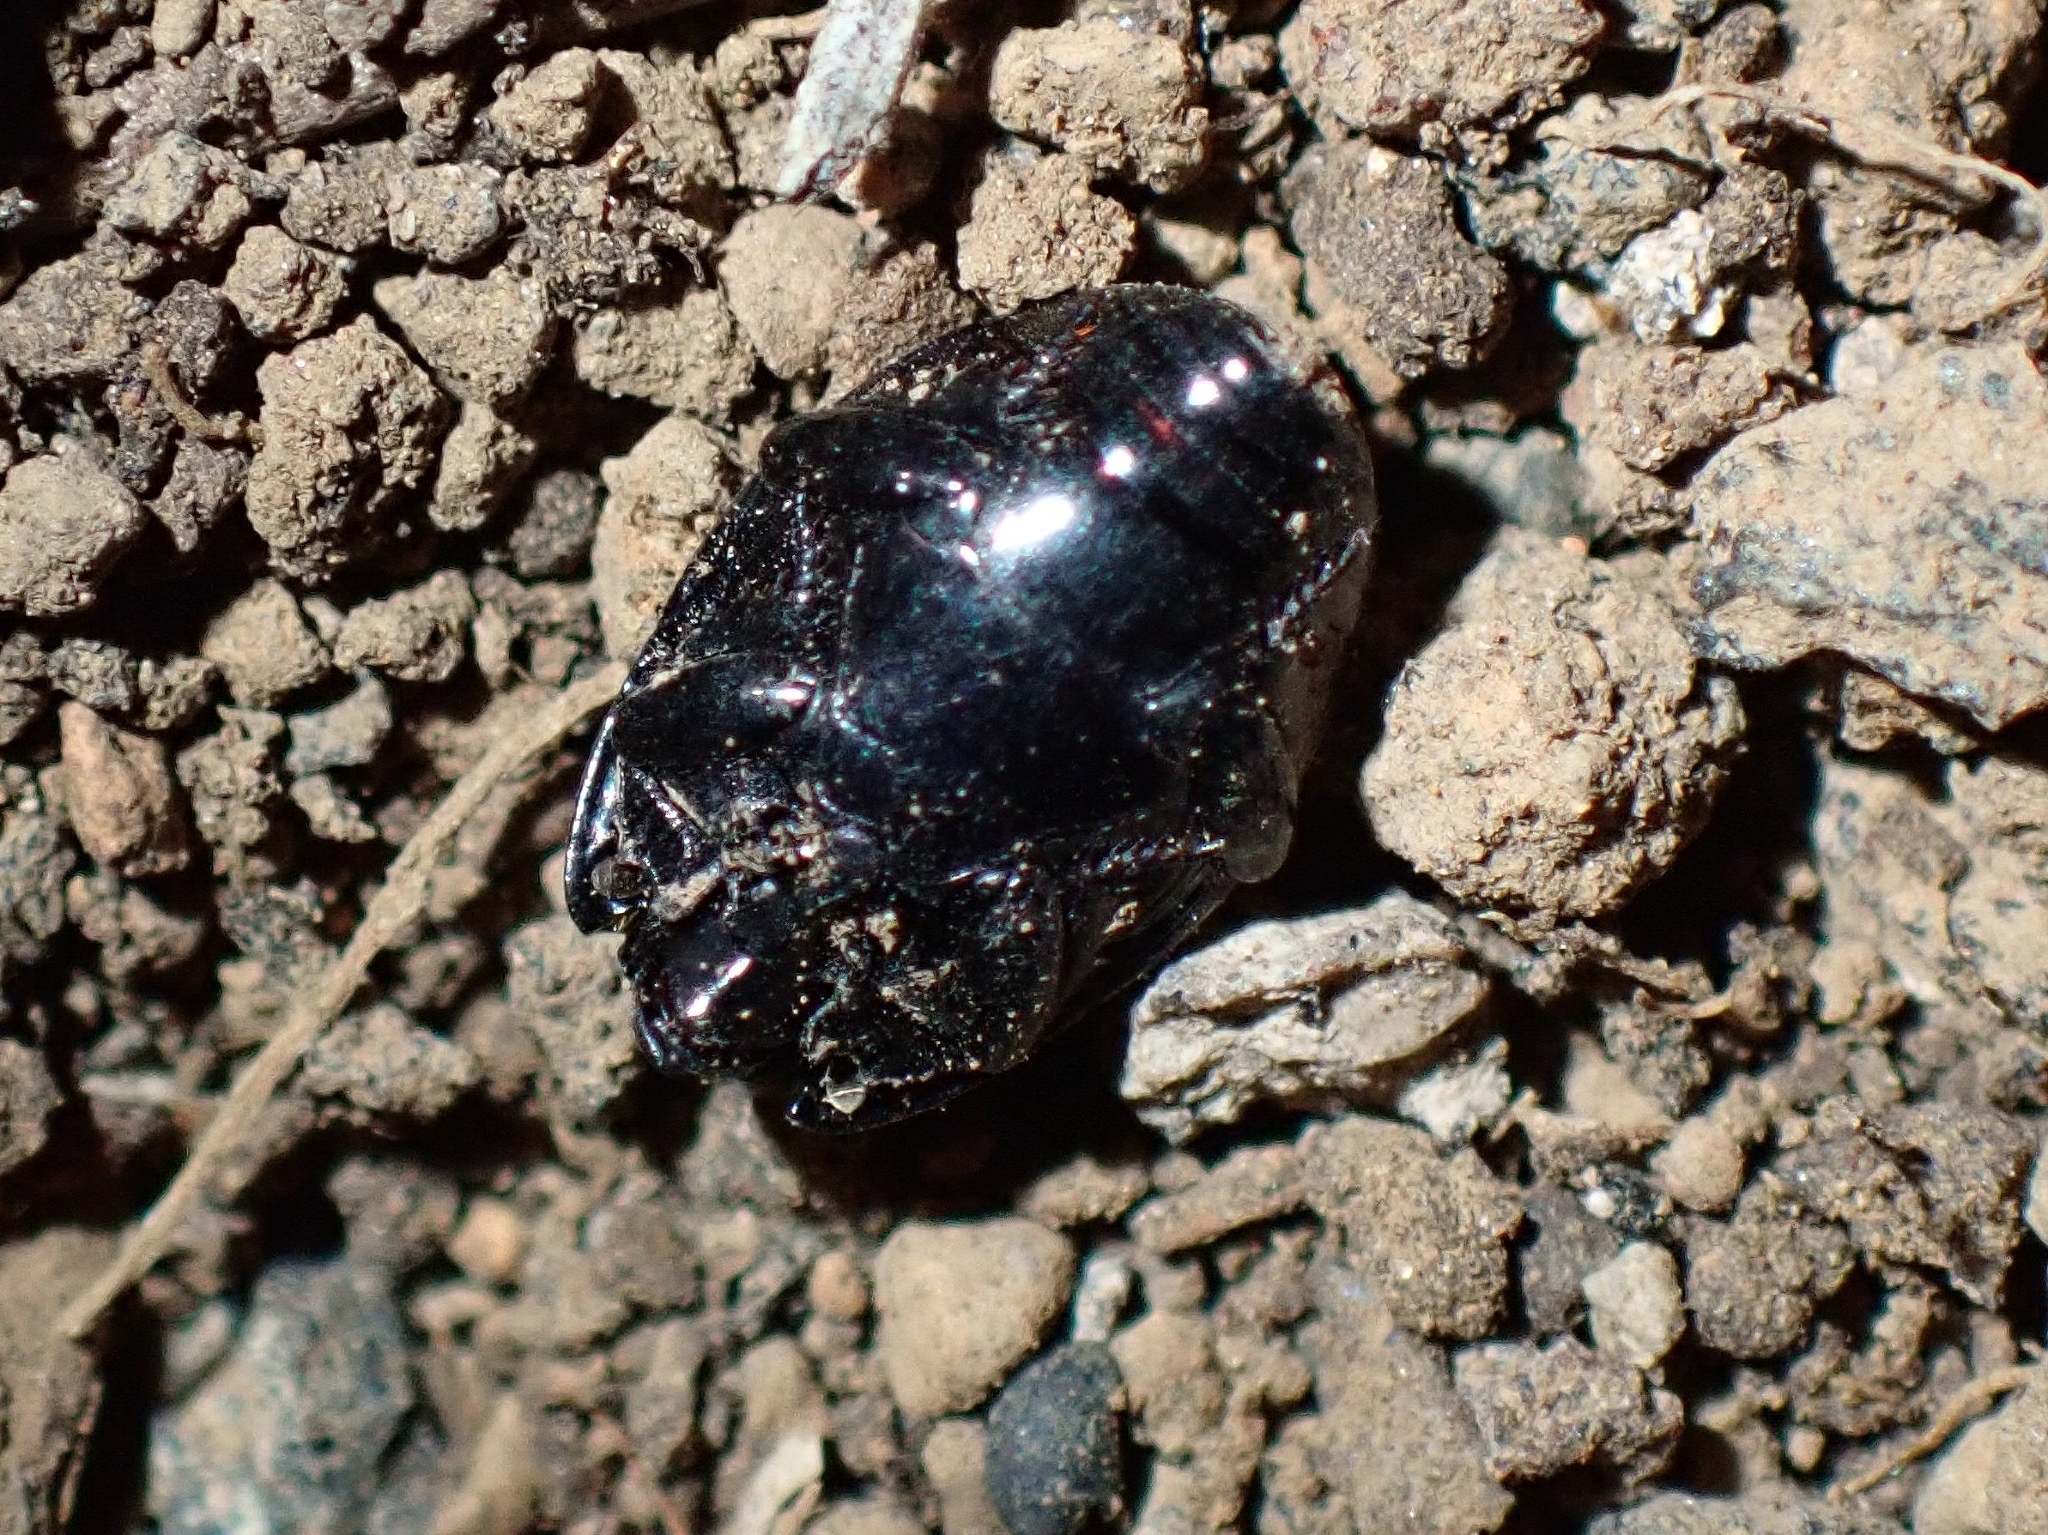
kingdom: Animalia
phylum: Arthropoda
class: Insecta
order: Coleoptera
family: Histeridae
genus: Hister
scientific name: Hister canariensis
